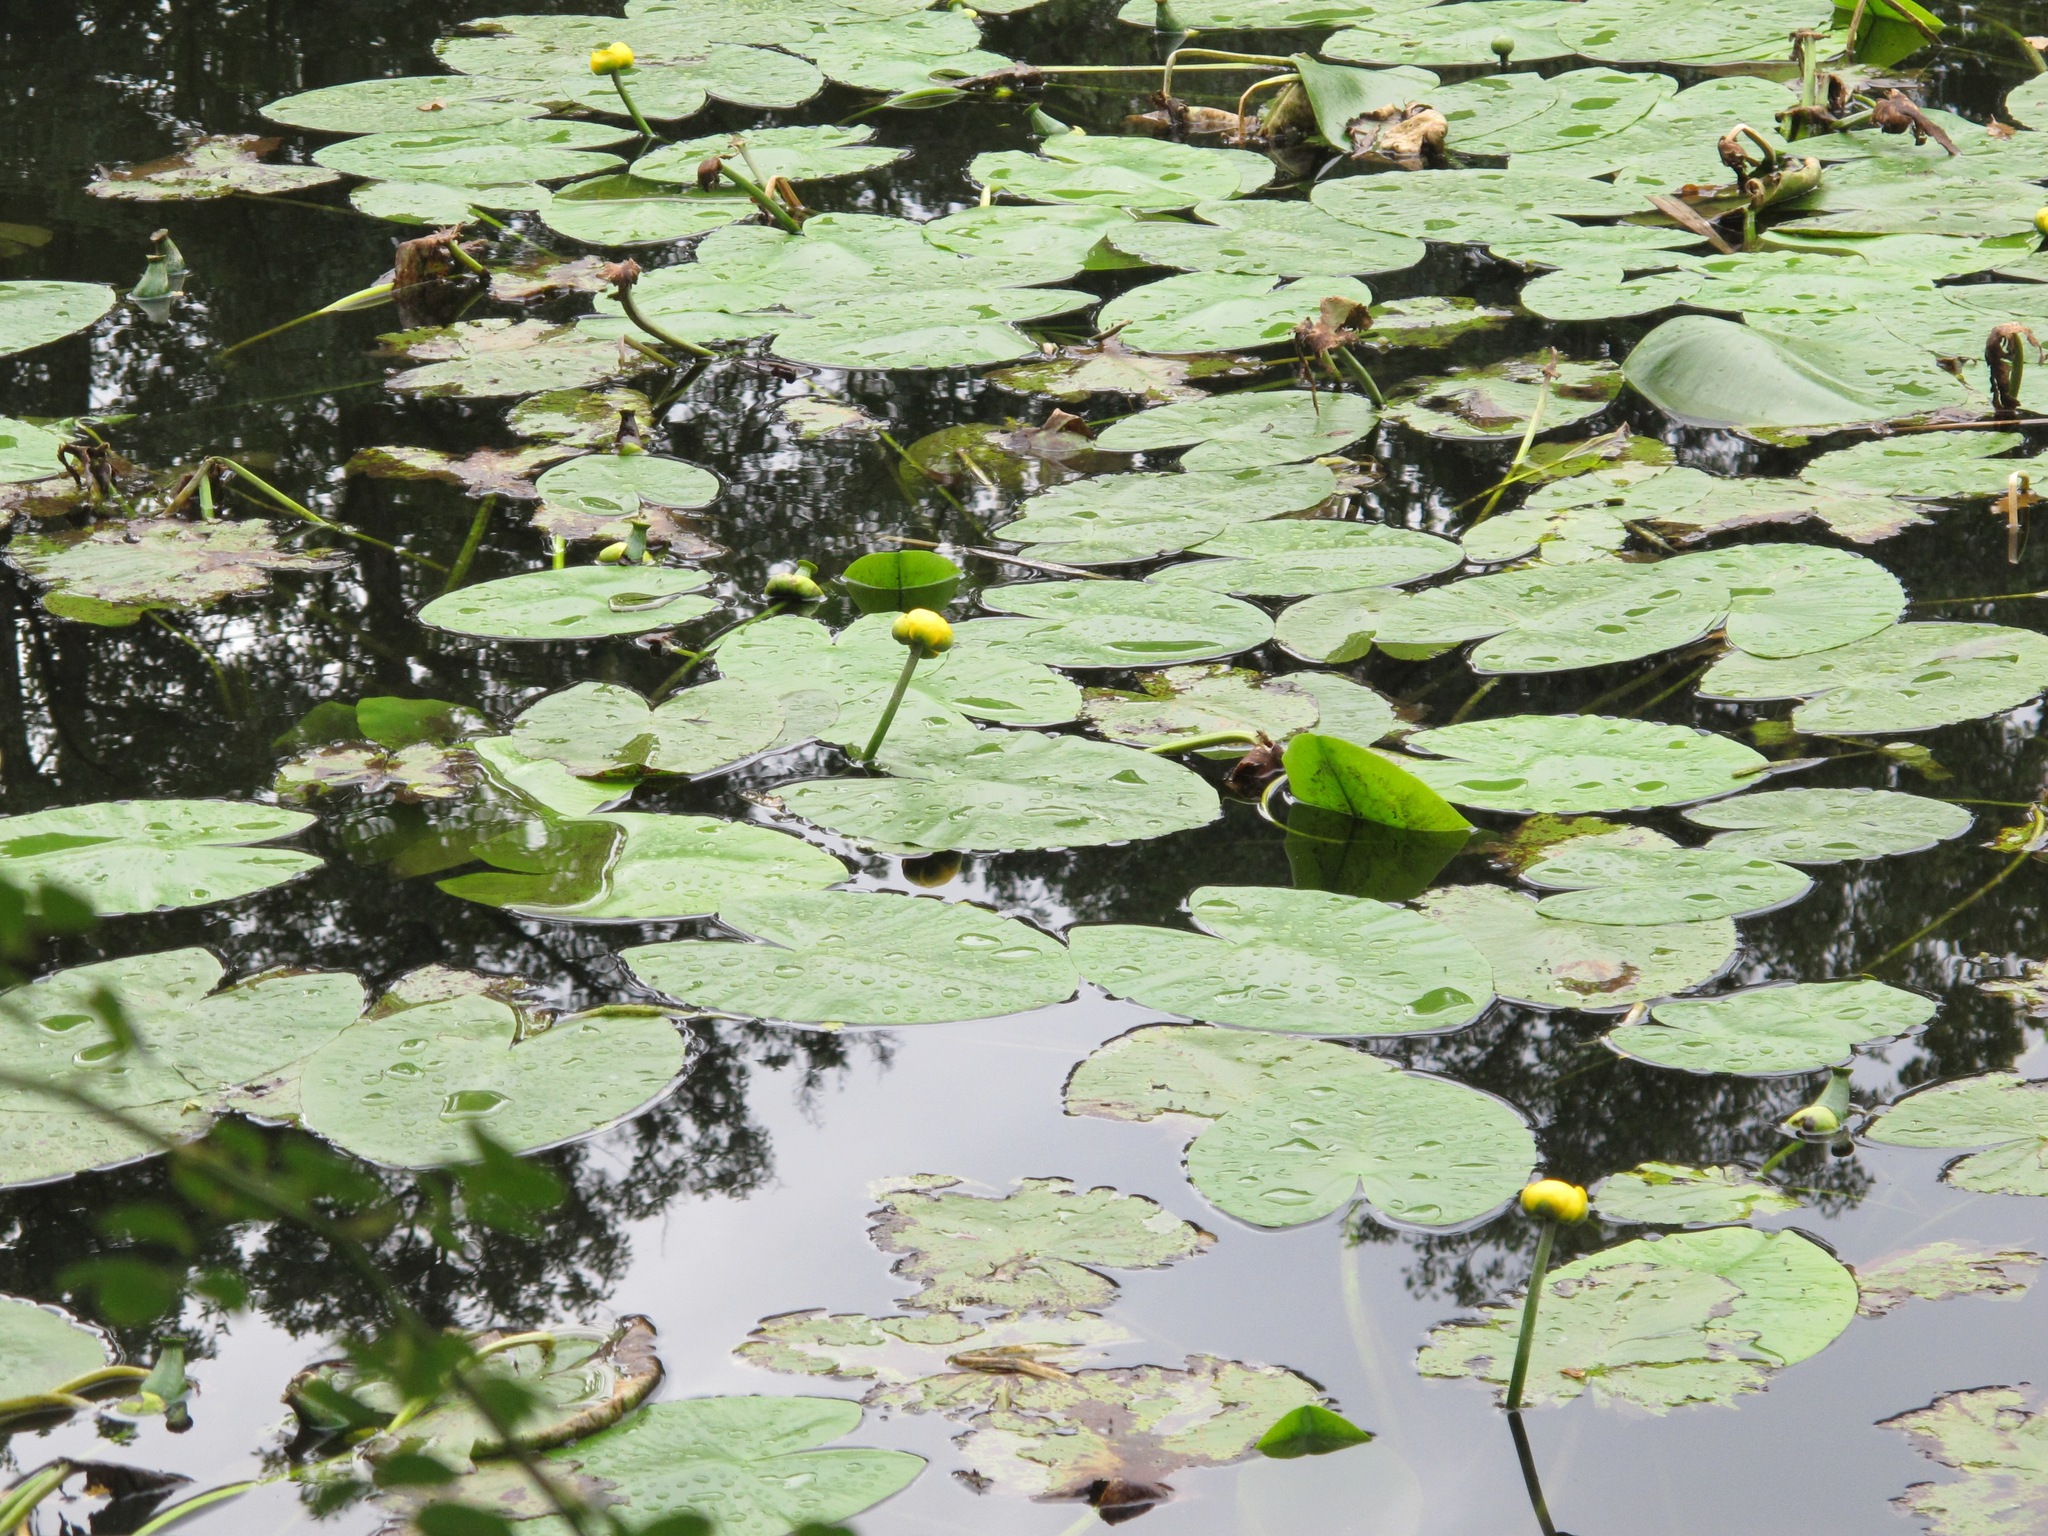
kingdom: Plantae
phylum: Tracheophyta
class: Magnoliopsida
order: Nymphaeales
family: Nymphaeaceae
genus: Nuphar
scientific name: Nuphar lutea
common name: Yellow water-lily
